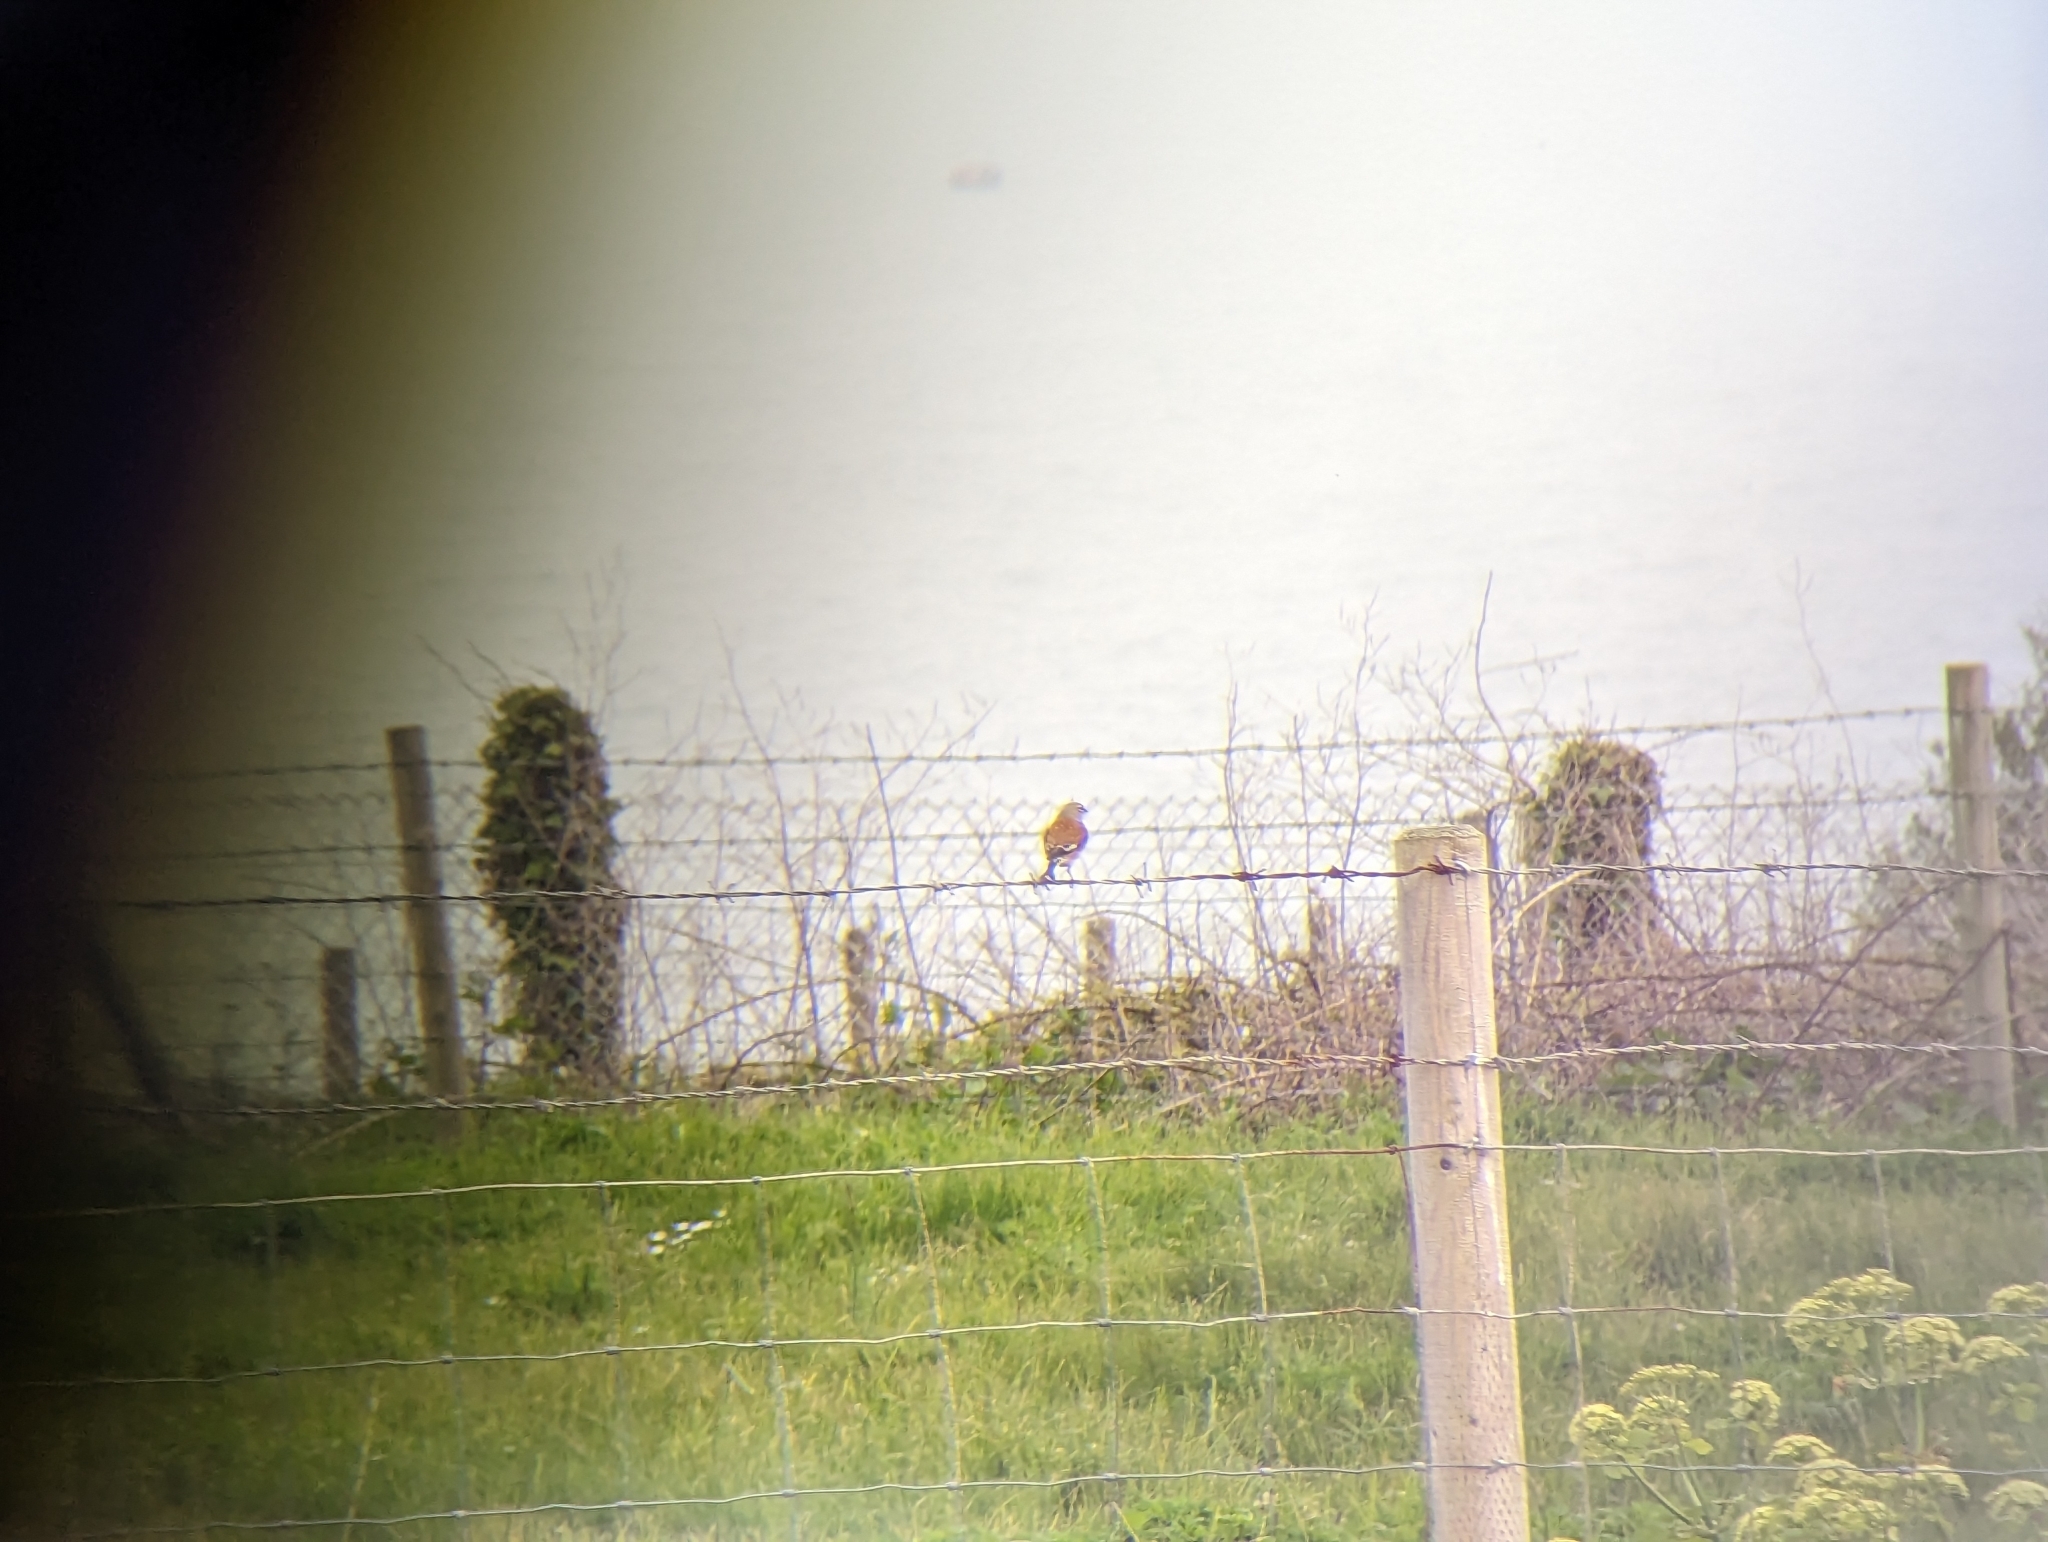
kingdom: Animalia
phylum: Chordata
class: Aves
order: Passeriformes
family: Fringillidae
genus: Linaria
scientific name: Linaria cannabina
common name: Common linnet
